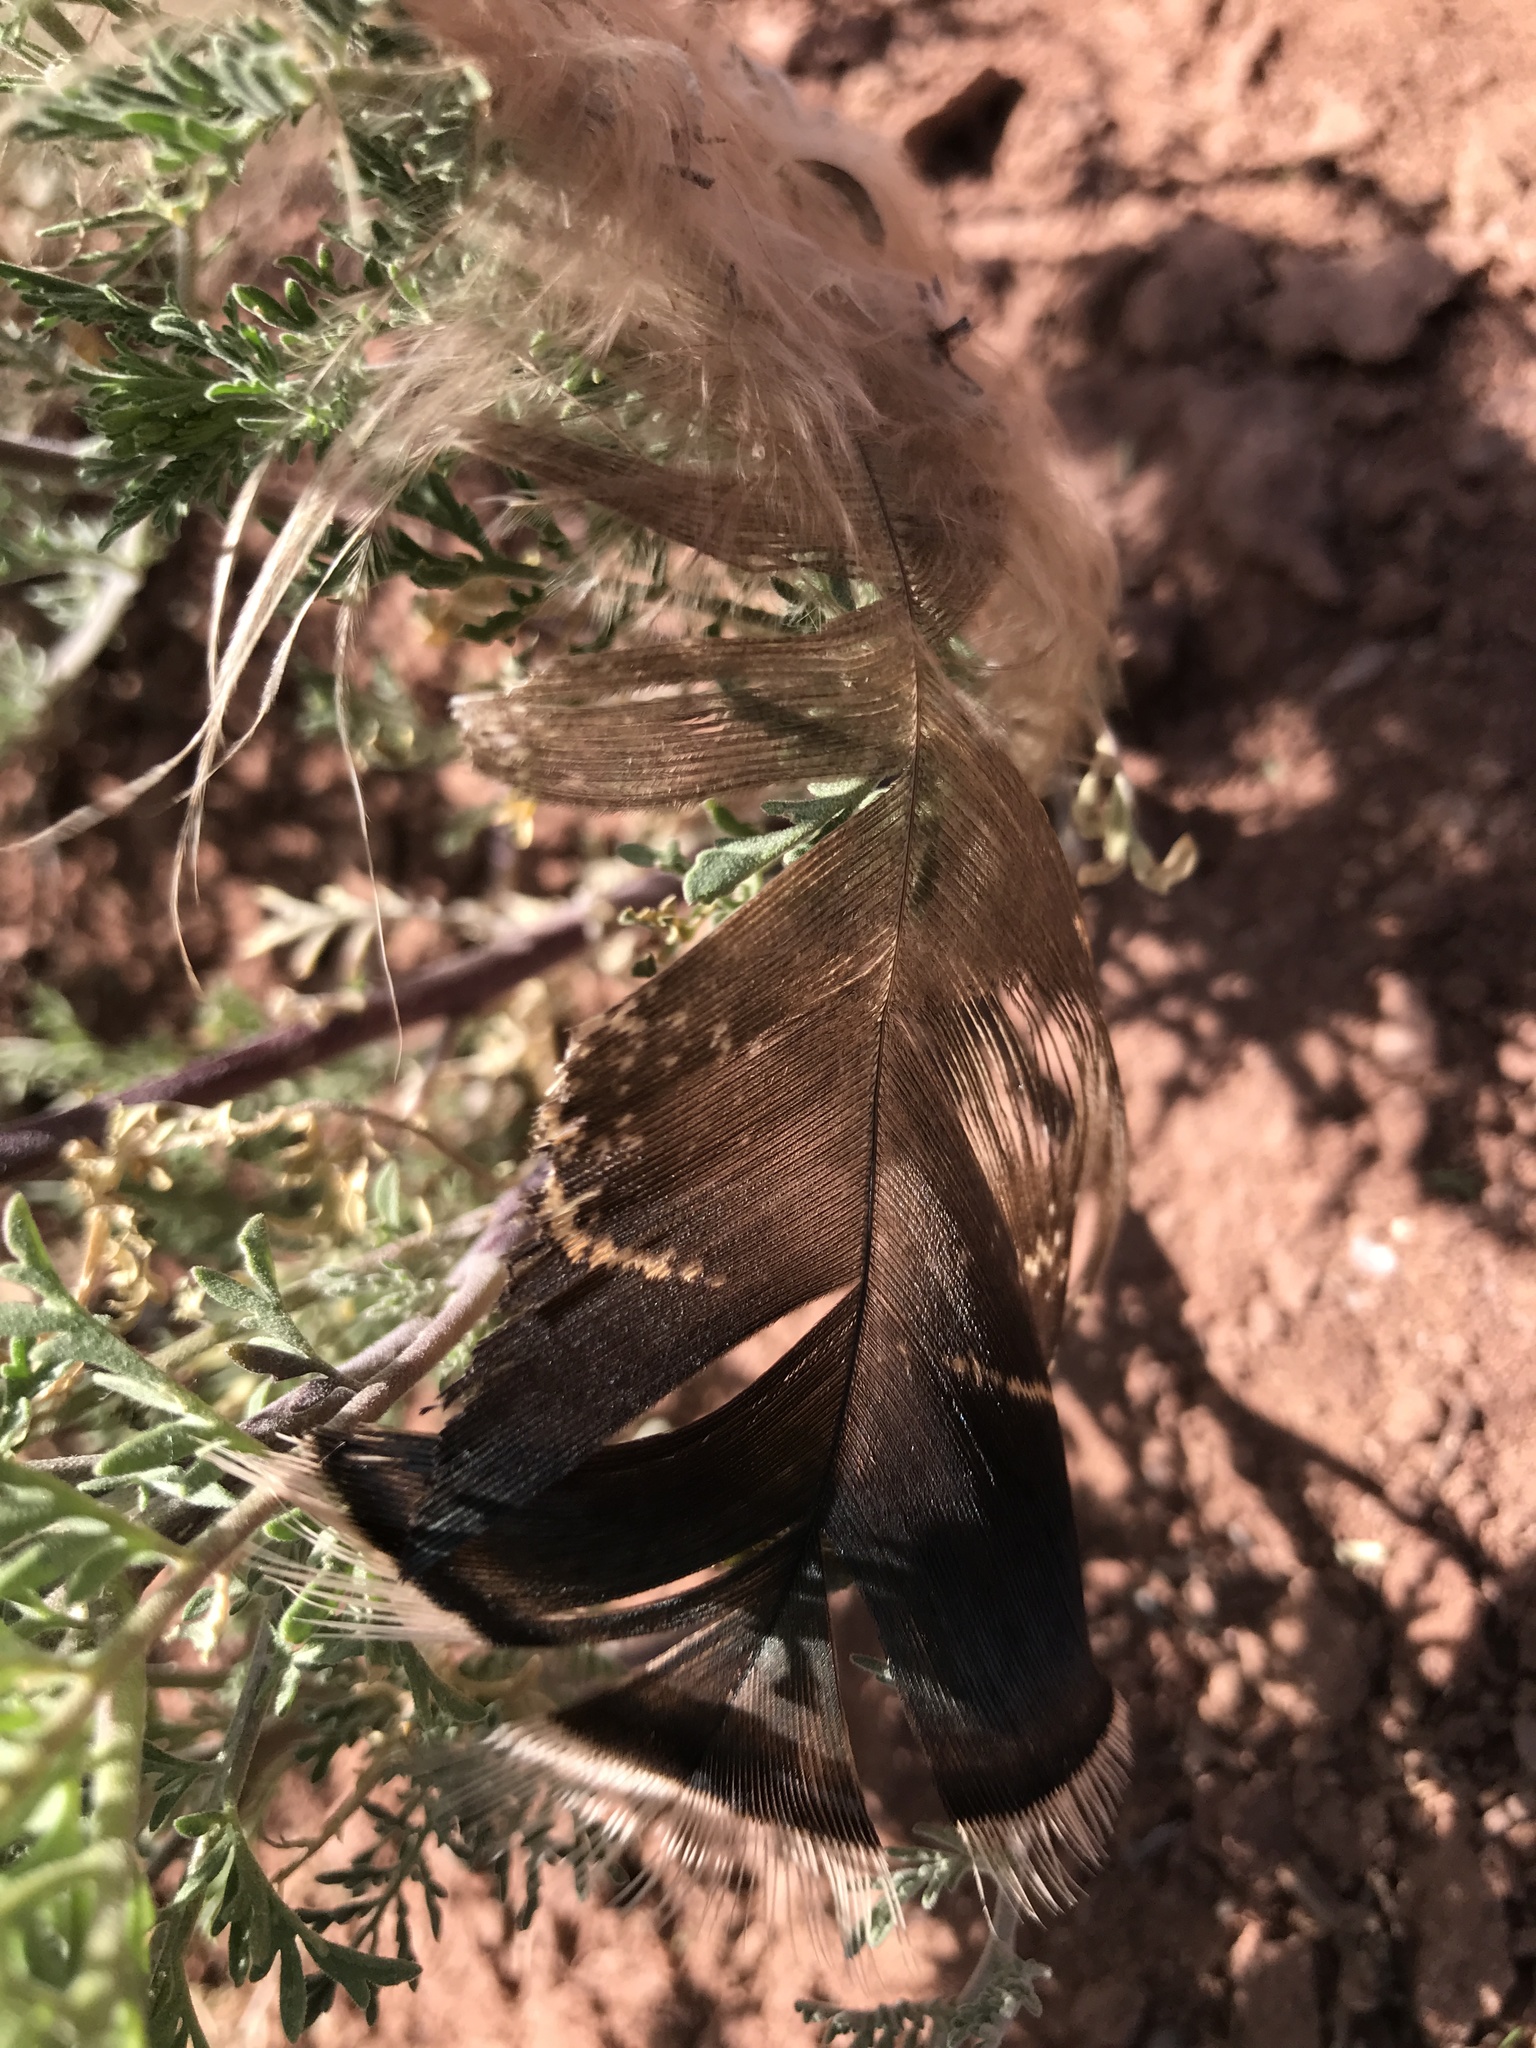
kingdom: Animalia
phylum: Chordata
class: Aves
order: Galliformes
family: Phasianidae
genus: Meleagris
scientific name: Meleagris gallopavo
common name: Wild turkey
